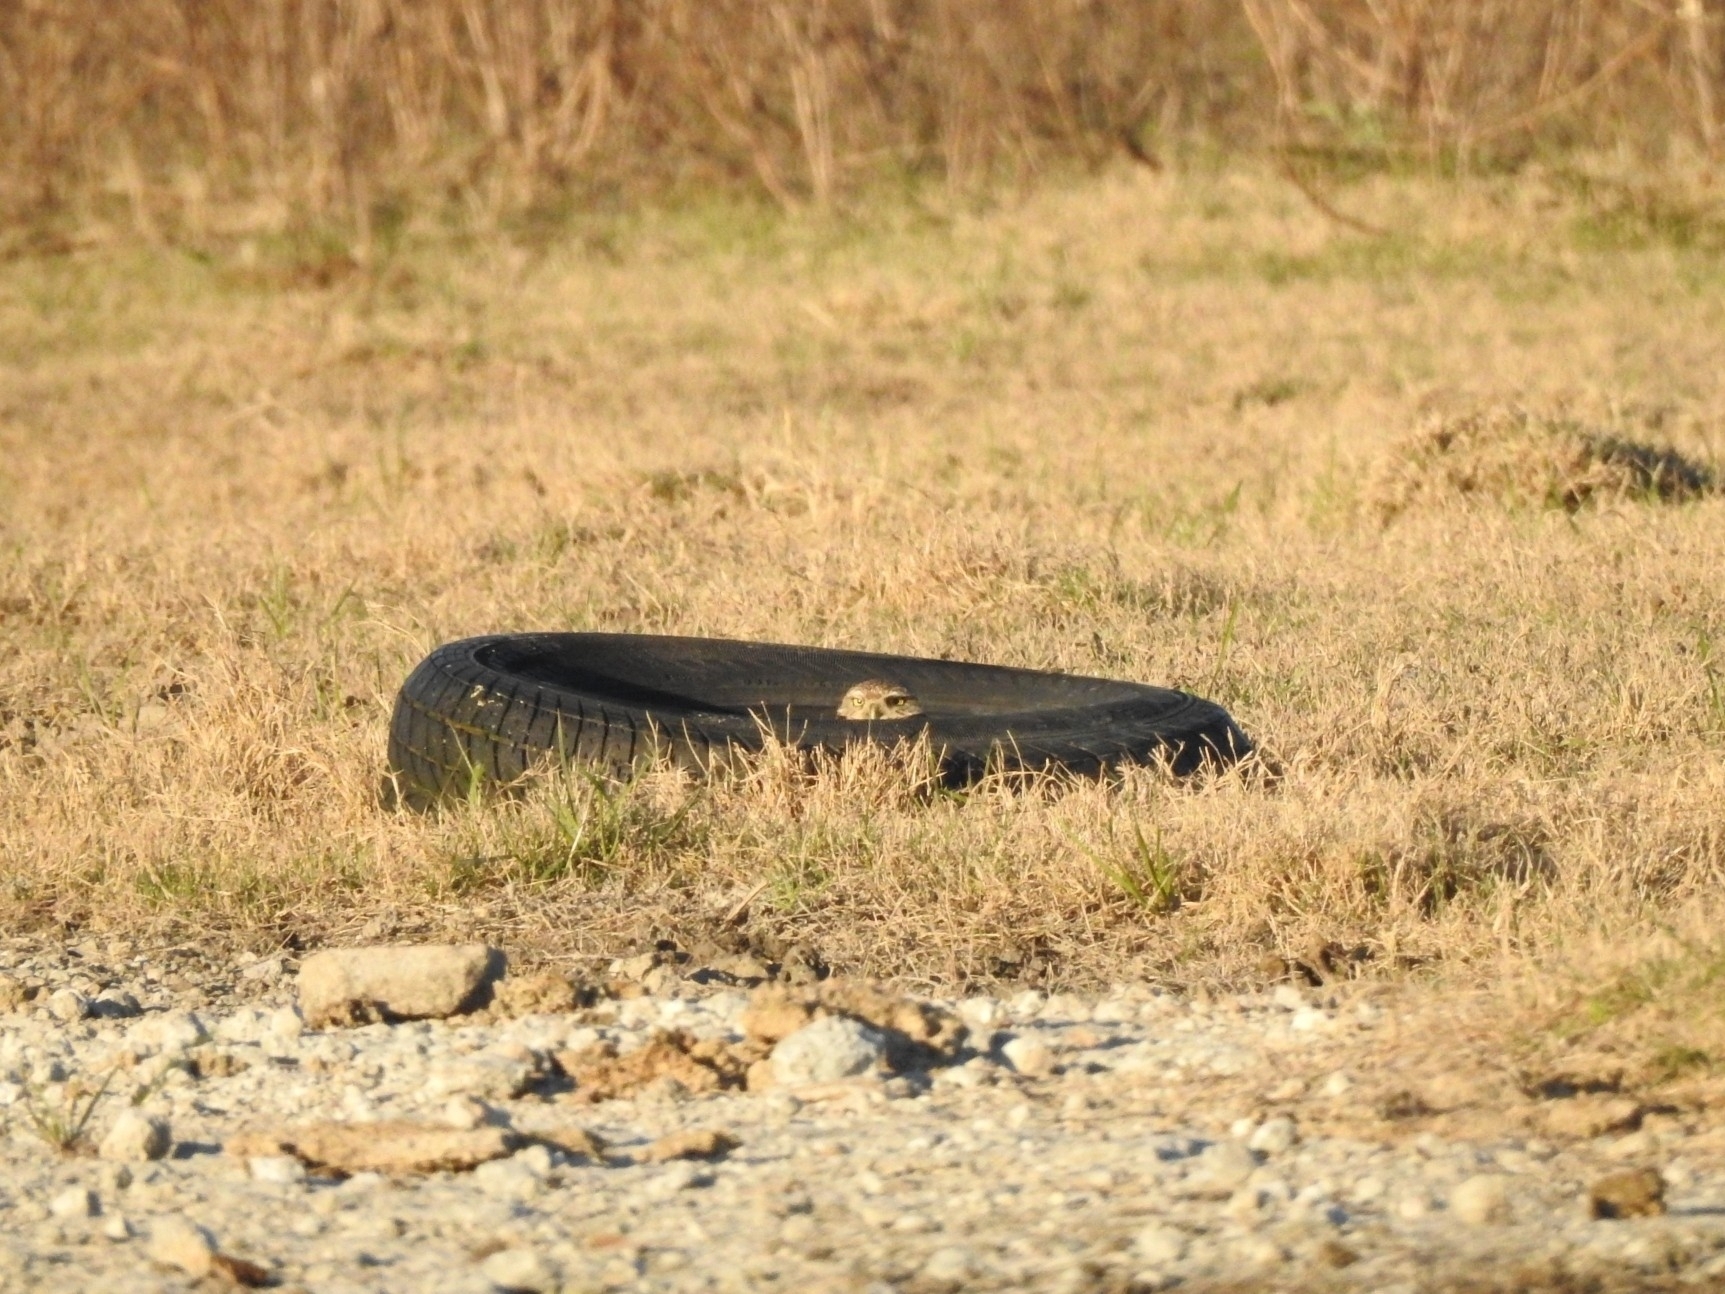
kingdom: Animalia
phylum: Chordata
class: Aves
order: Strigiformes
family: Strigidae
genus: Athene
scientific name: Athene cunicularia
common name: Burrowing owl
